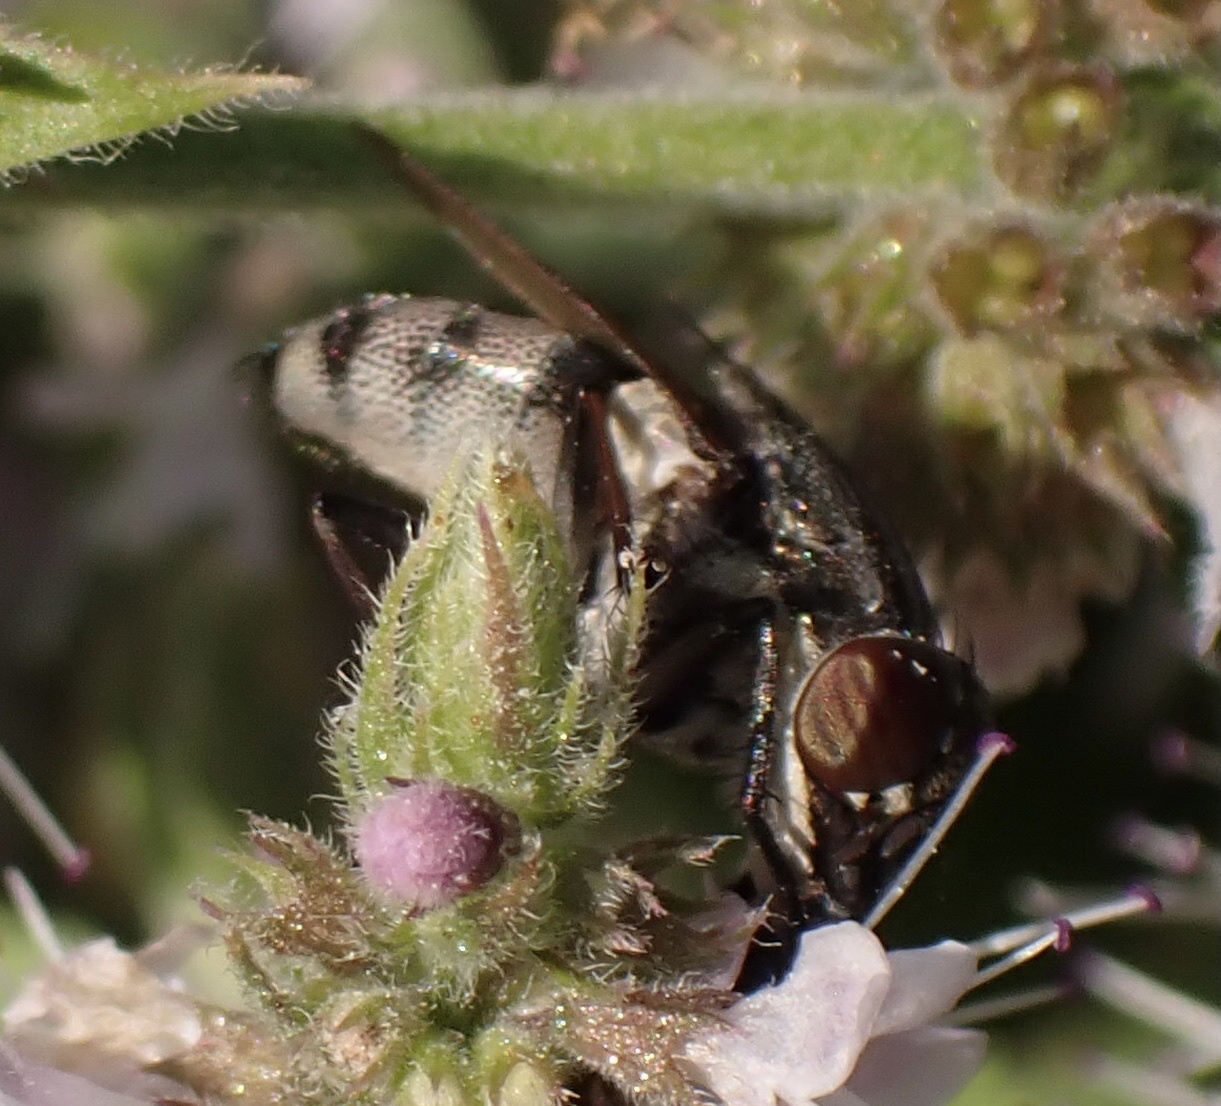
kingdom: Animalia
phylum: Arthropoda
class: Insecta
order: Diptera
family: Calliphoridae
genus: Stomorhina
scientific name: Stomorhina lunata
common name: Locust blowfly
